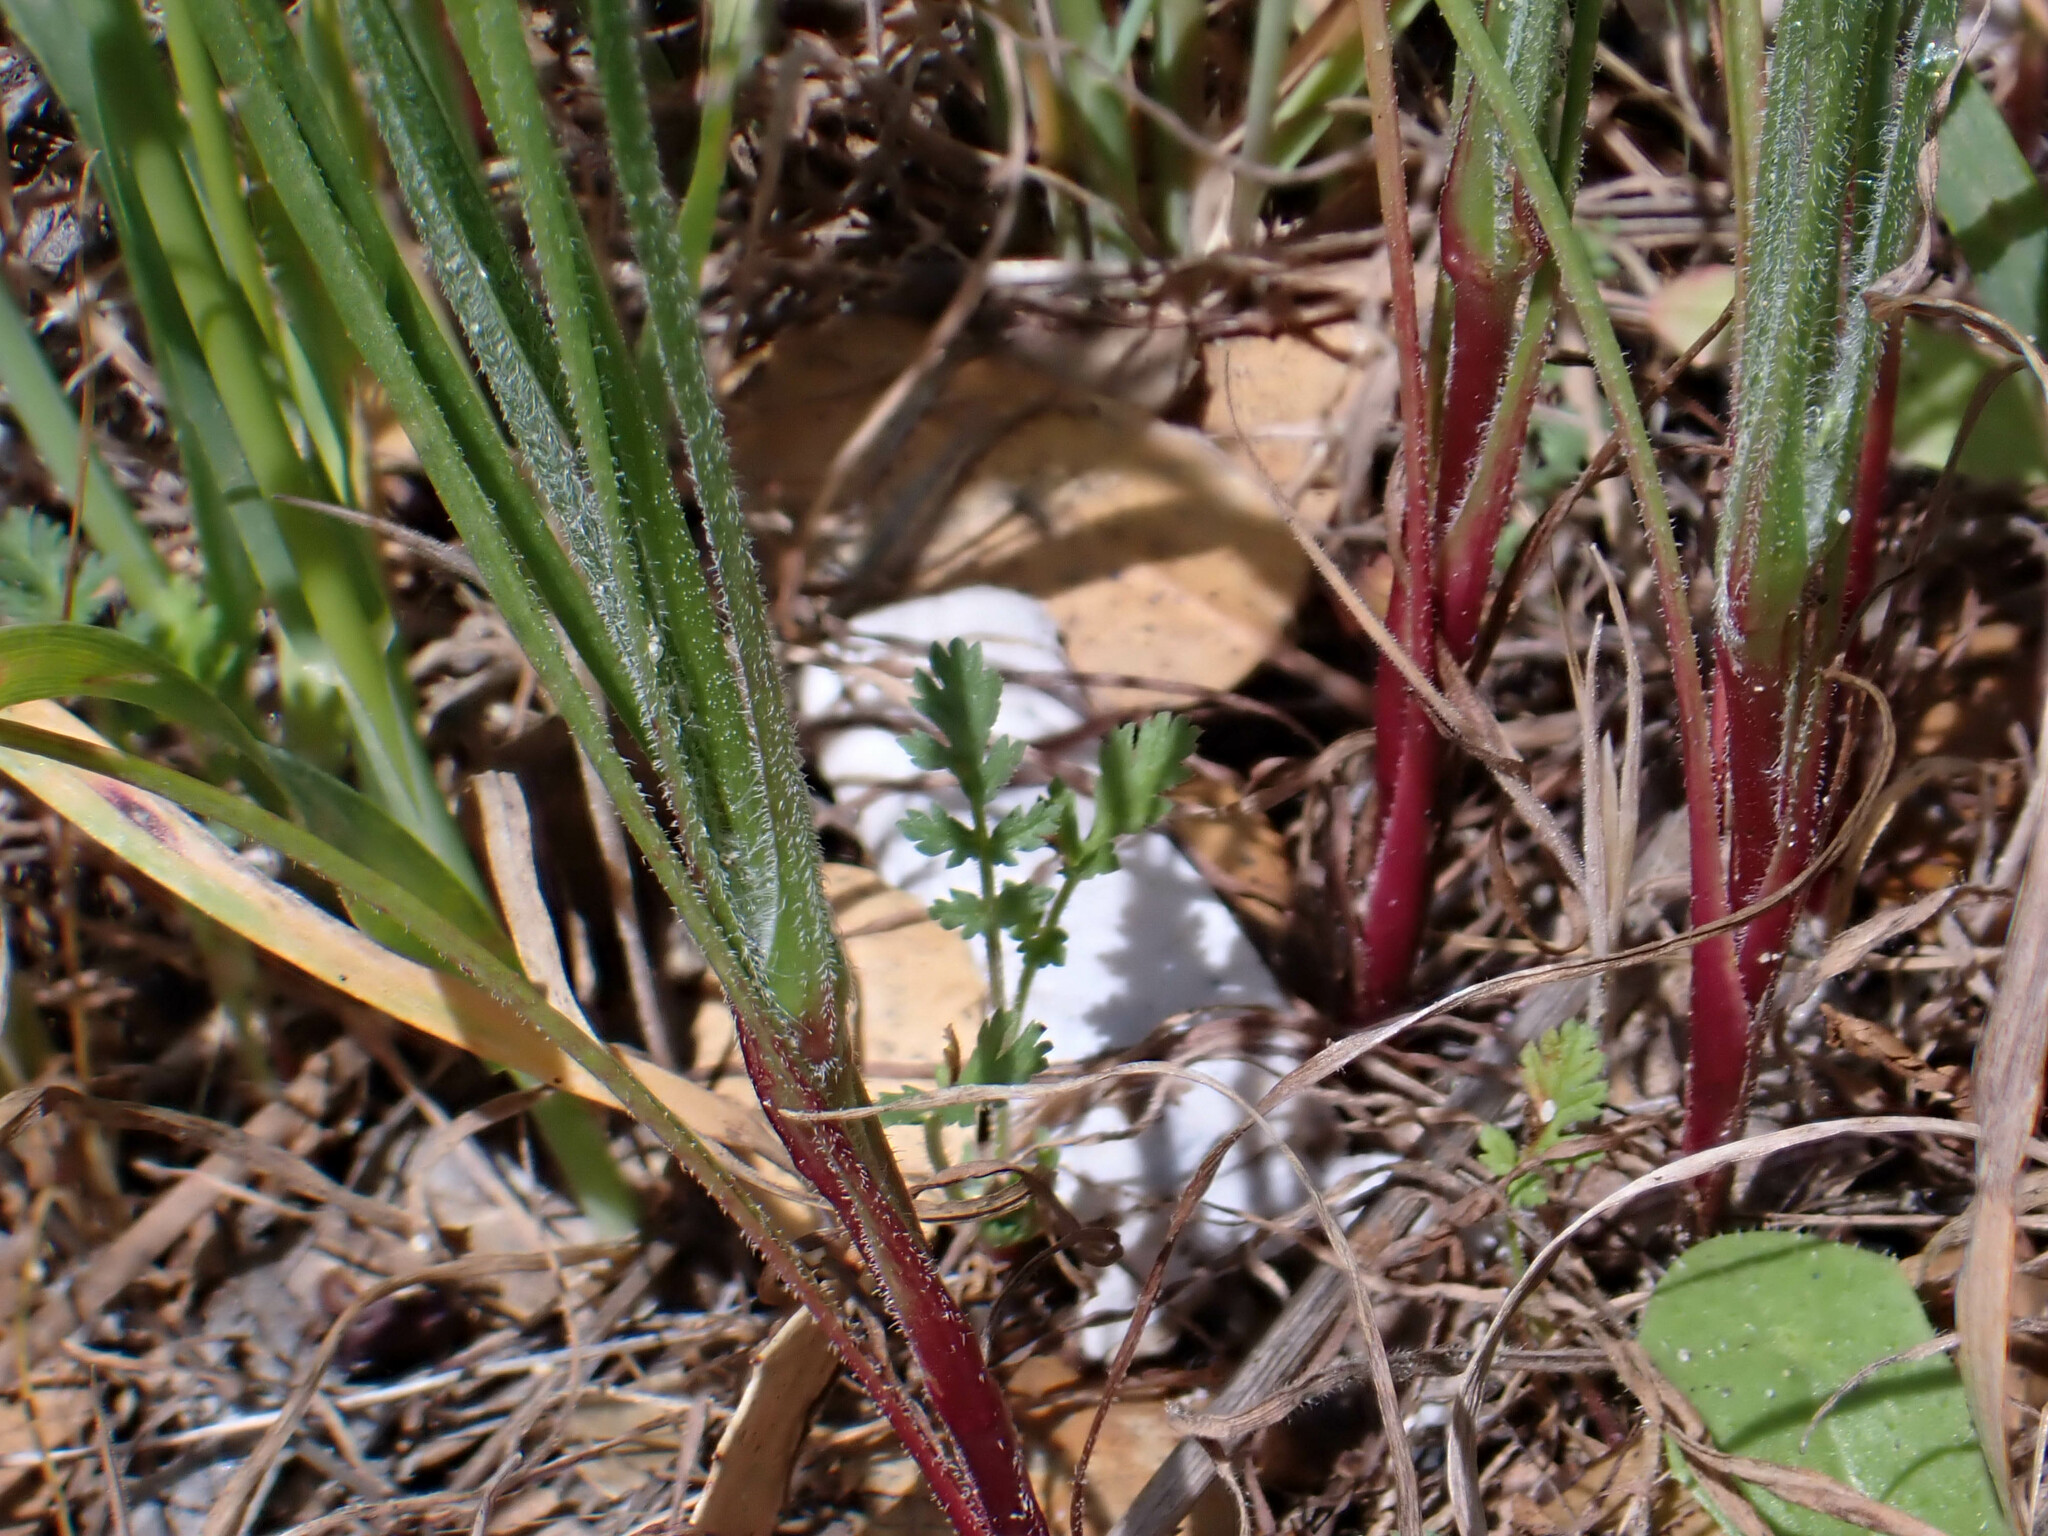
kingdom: Plantae
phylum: Tracheophyta
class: Magnoliopsida
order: Asterales
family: Asteraceae
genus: Microseris
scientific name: Microseris lindleyi
